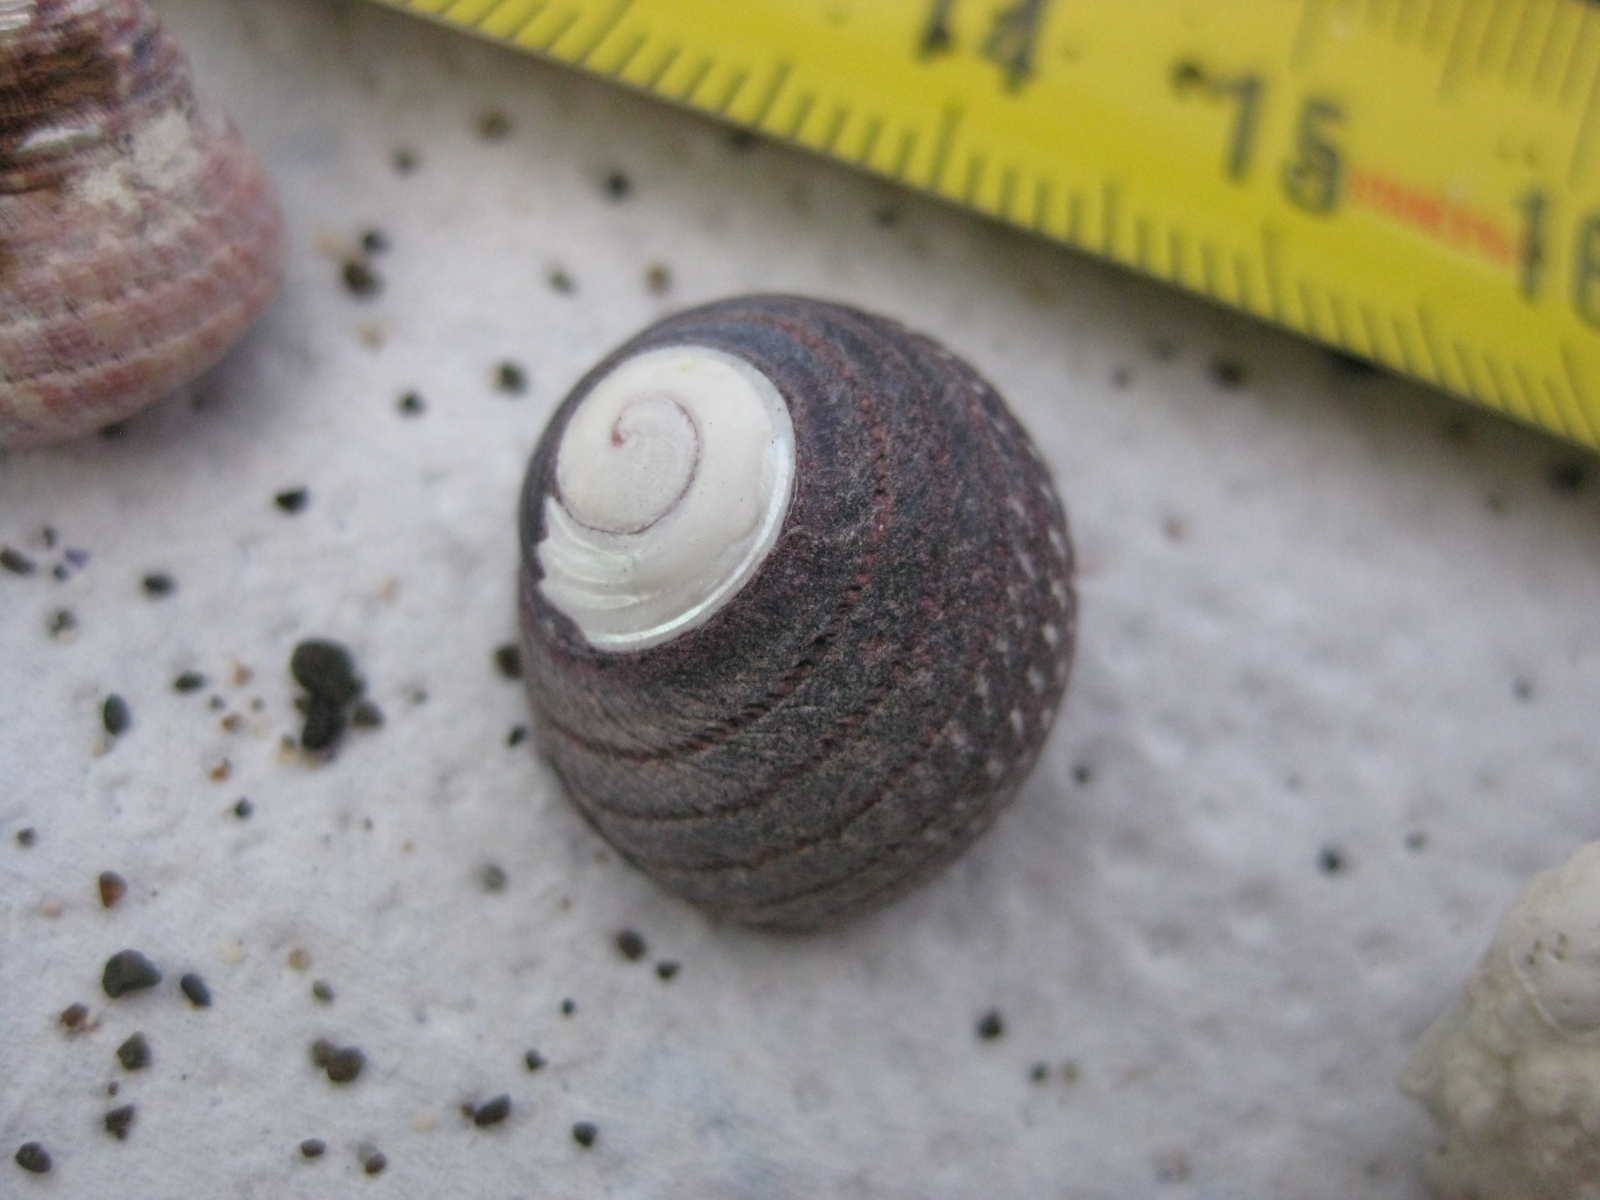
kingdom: Animalia
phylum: Mollusca
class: Gastropoda
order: Trochida
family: Trochidae
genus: Diloma
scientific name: Diloma aethiops
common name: Scorched monodont
